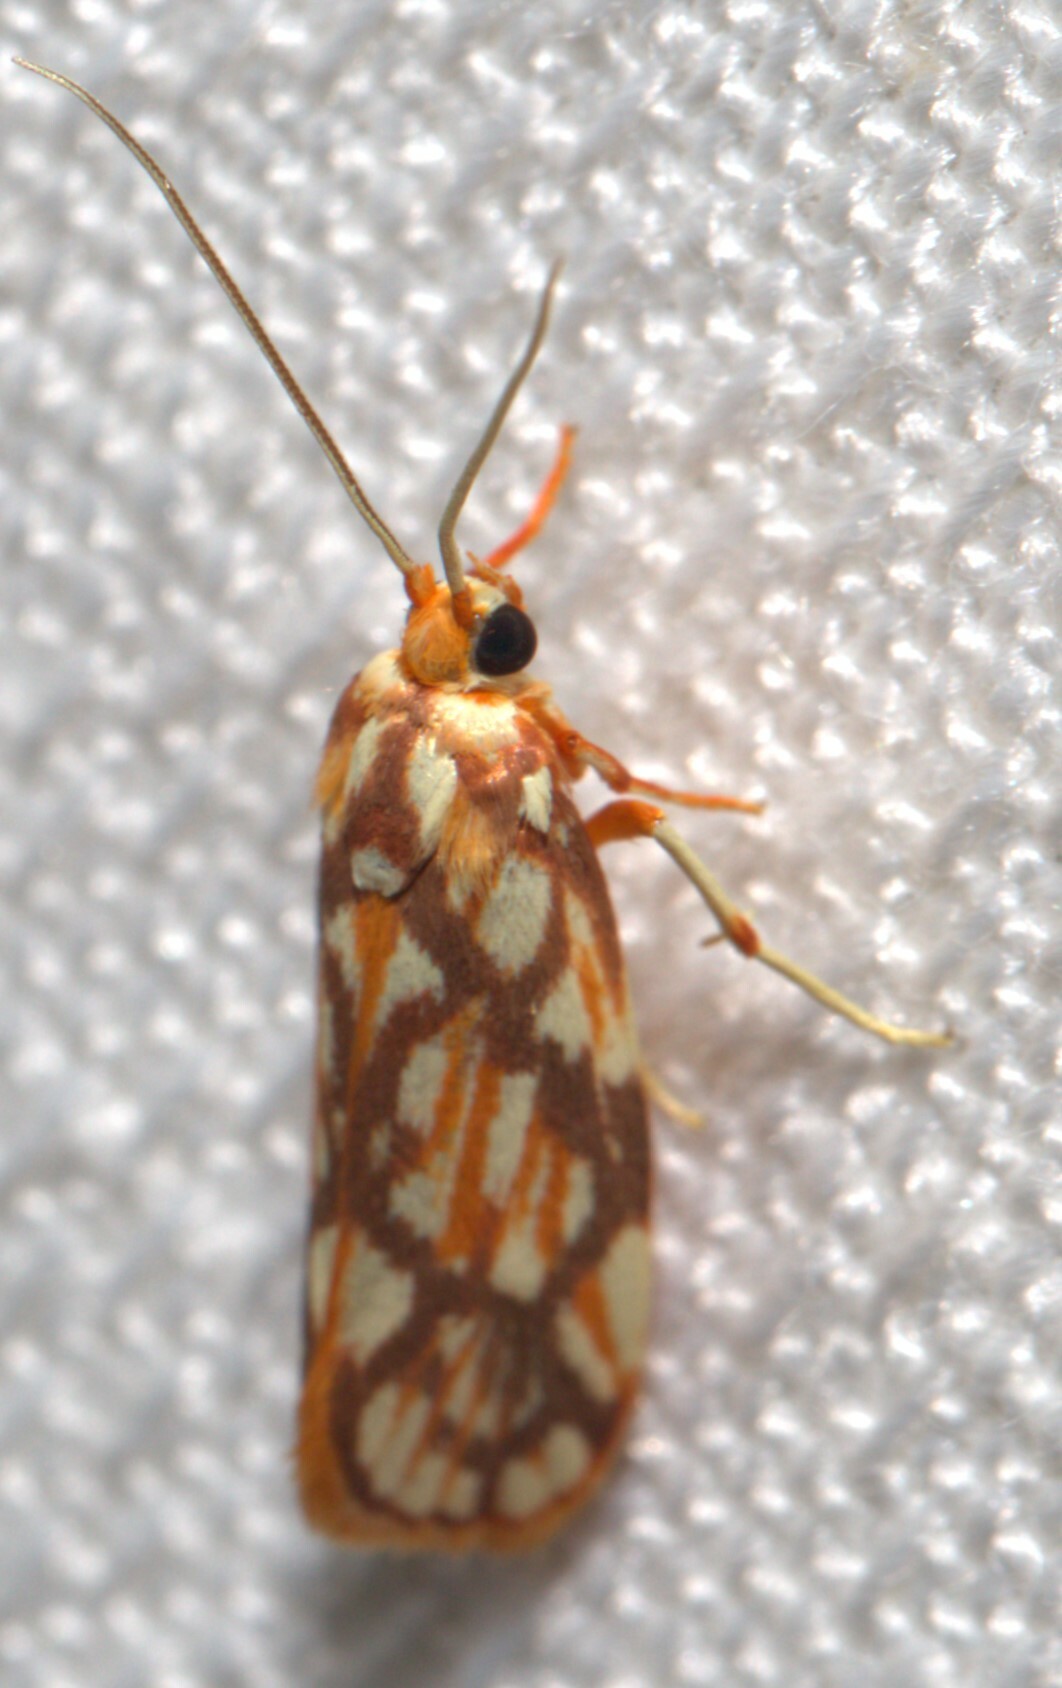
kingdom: Animalia
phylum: Arthropoda
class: Insecta
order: Lepidoptera
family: Lacturidae
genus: Lactura
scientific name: Lactura panopsia
